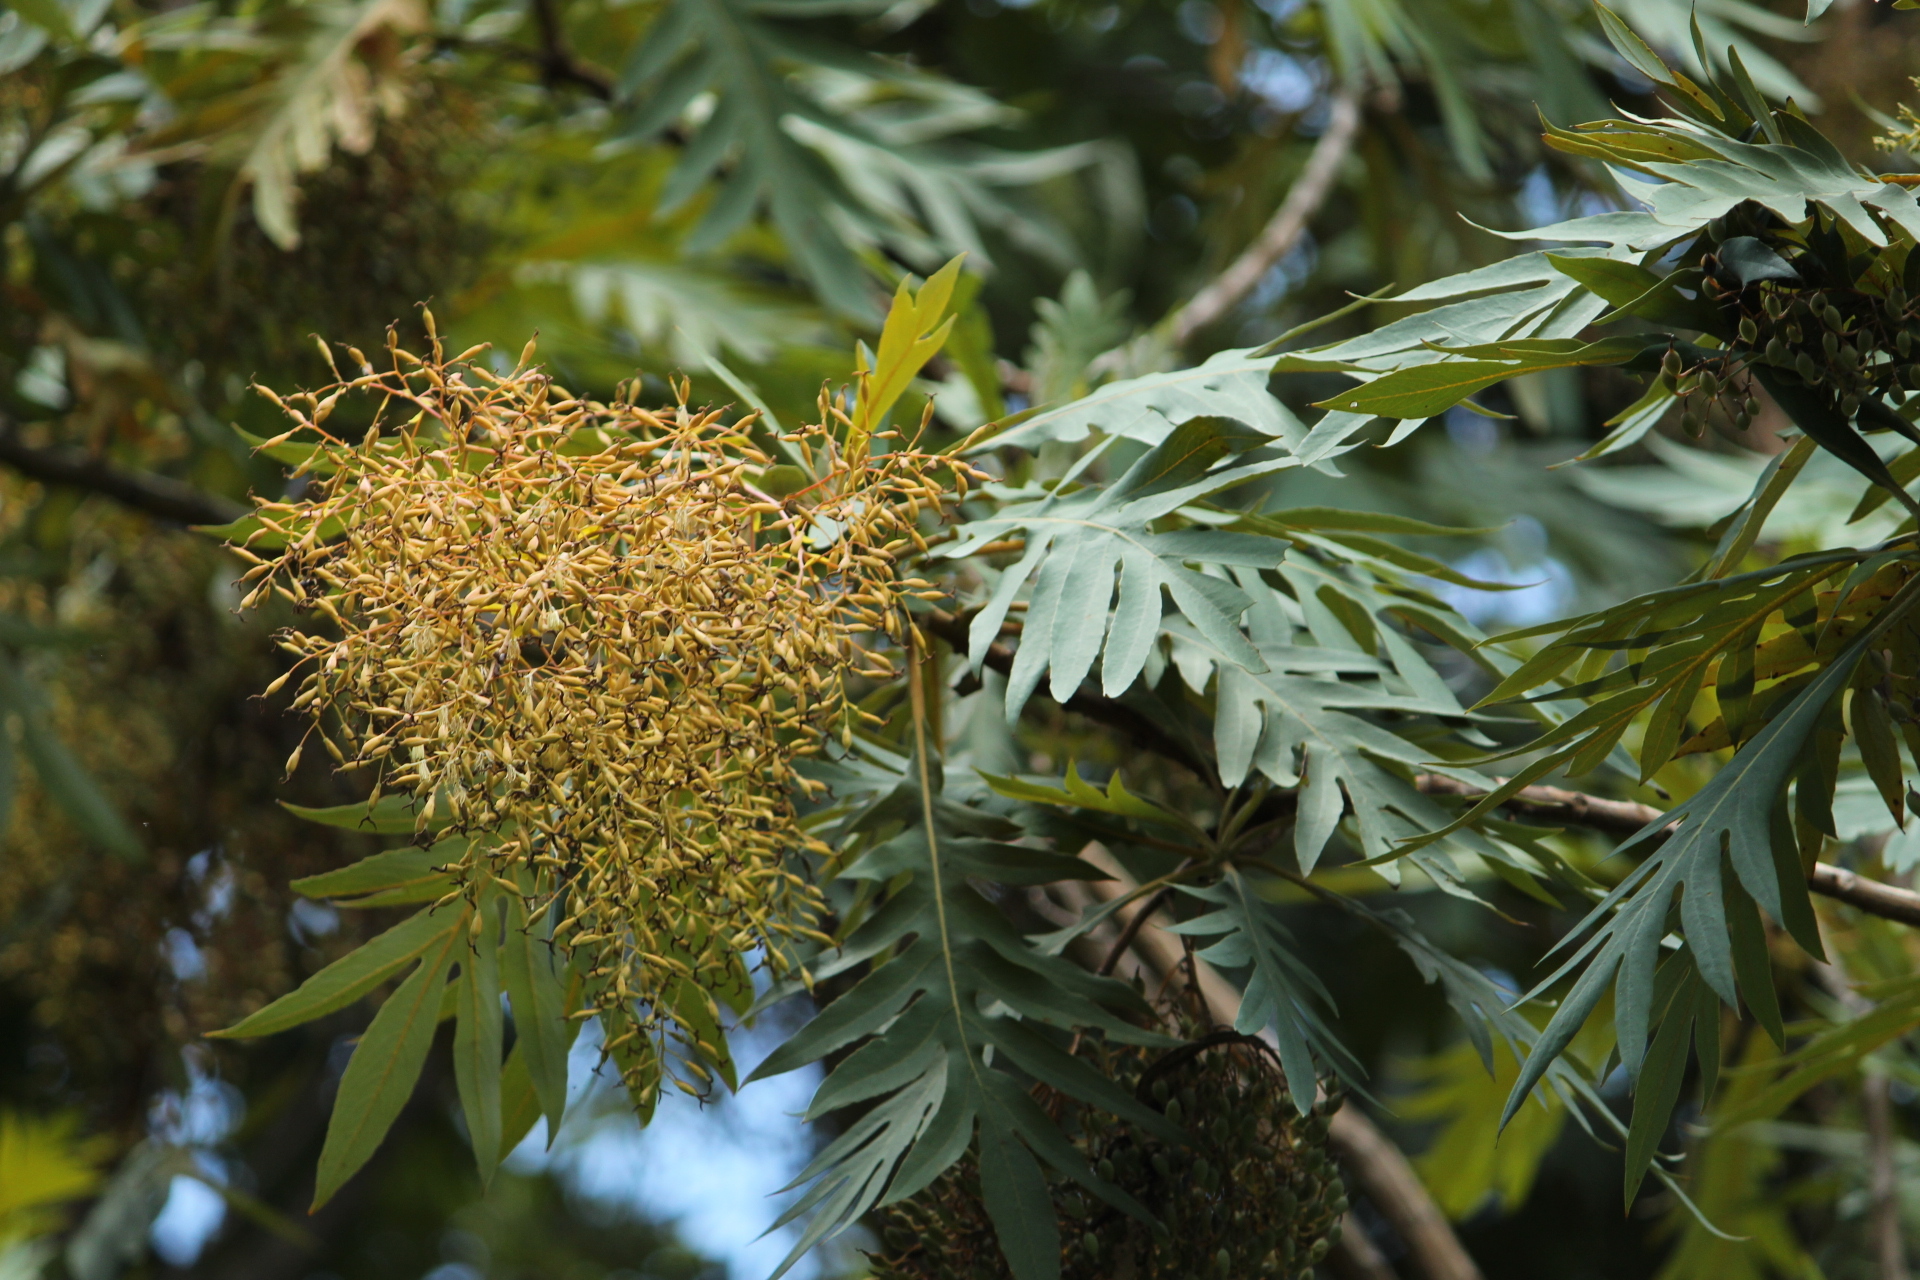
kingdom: Plantae
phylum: Tracheophyta
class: Magnoliopsida
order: Ranunculales
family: Papaveraceae
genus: Bocconia
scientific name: Bocconia frutescens
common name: Tree poppy
